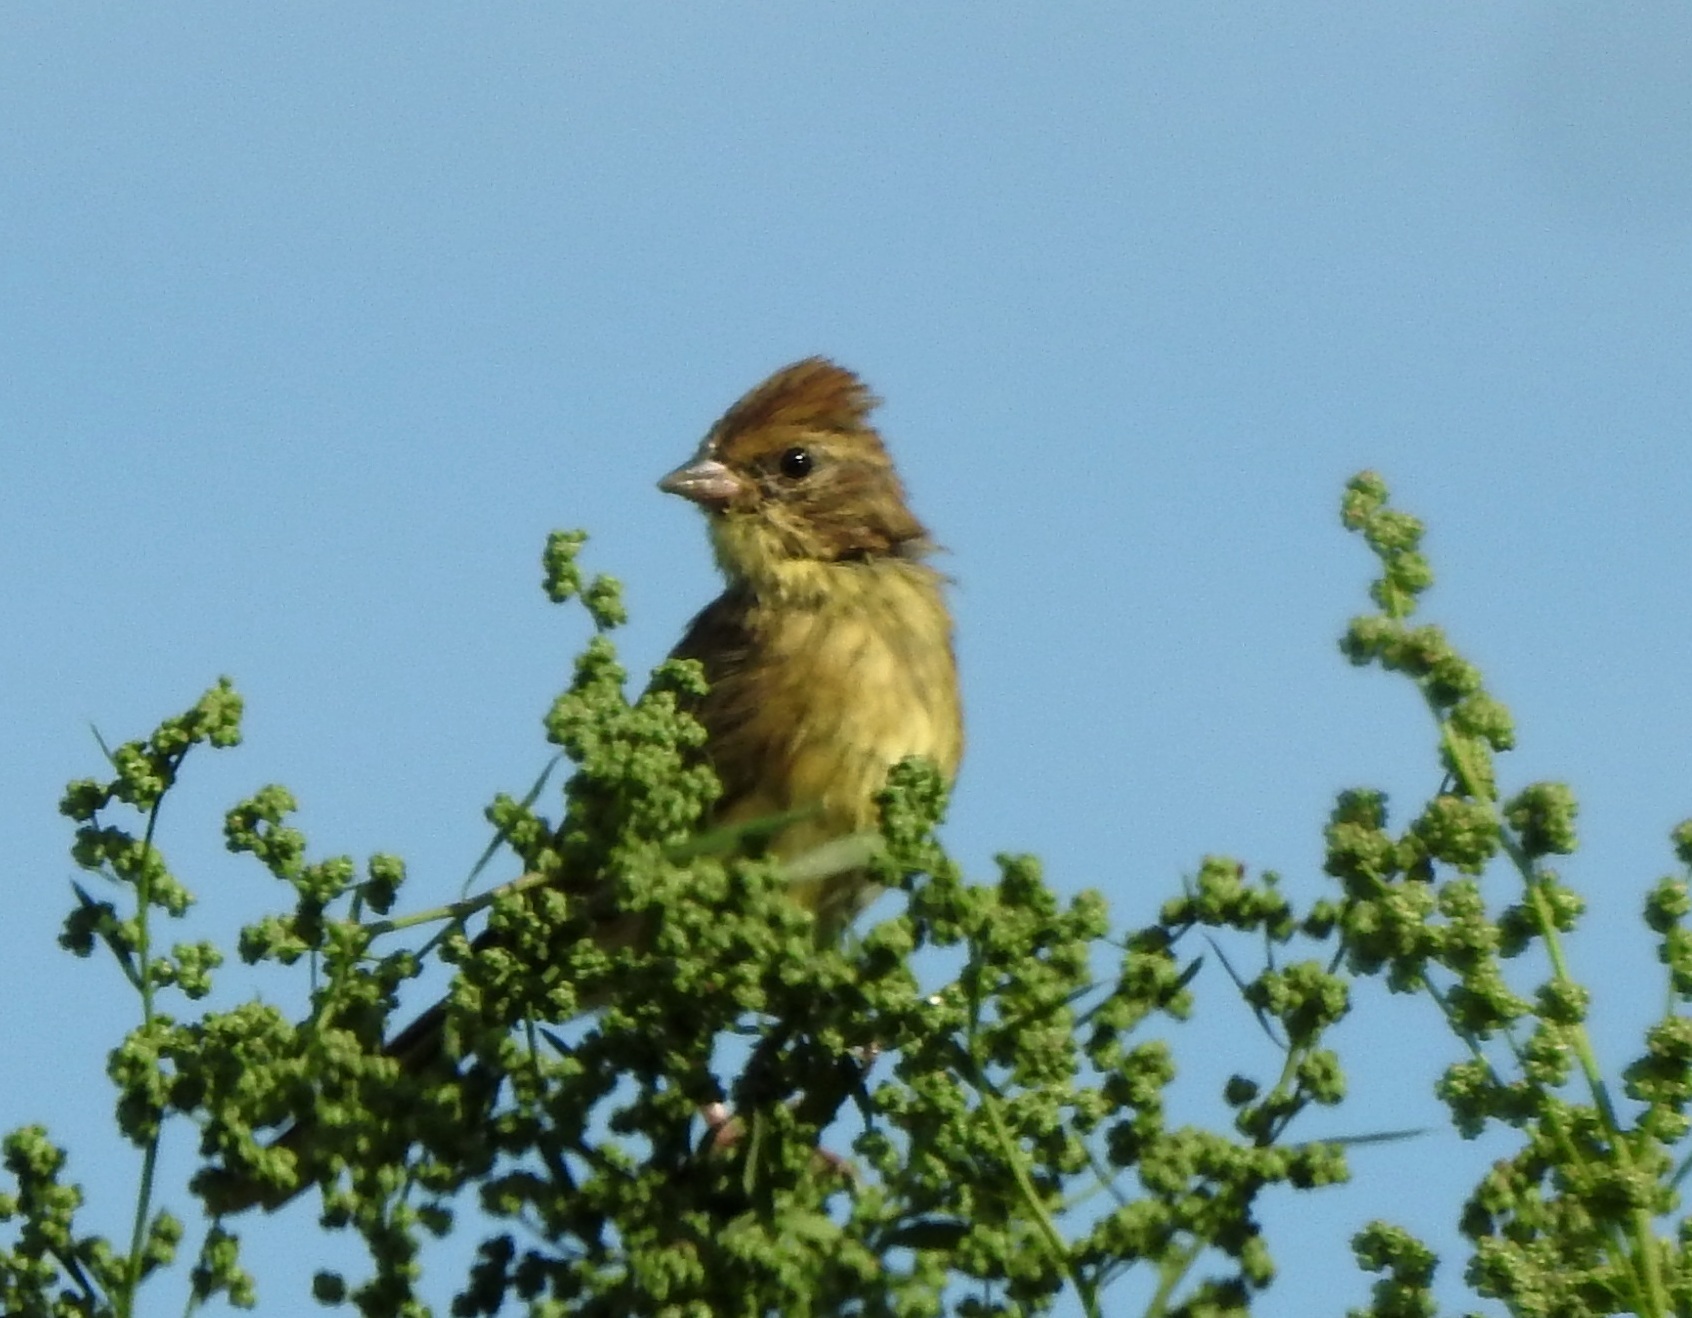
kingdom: Animalia
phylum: Chordata
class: Aves
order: Passeriformes
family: Emberizidae
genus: Emberiza
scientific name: Emberiza spodocephala
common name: Black-faced bunting
